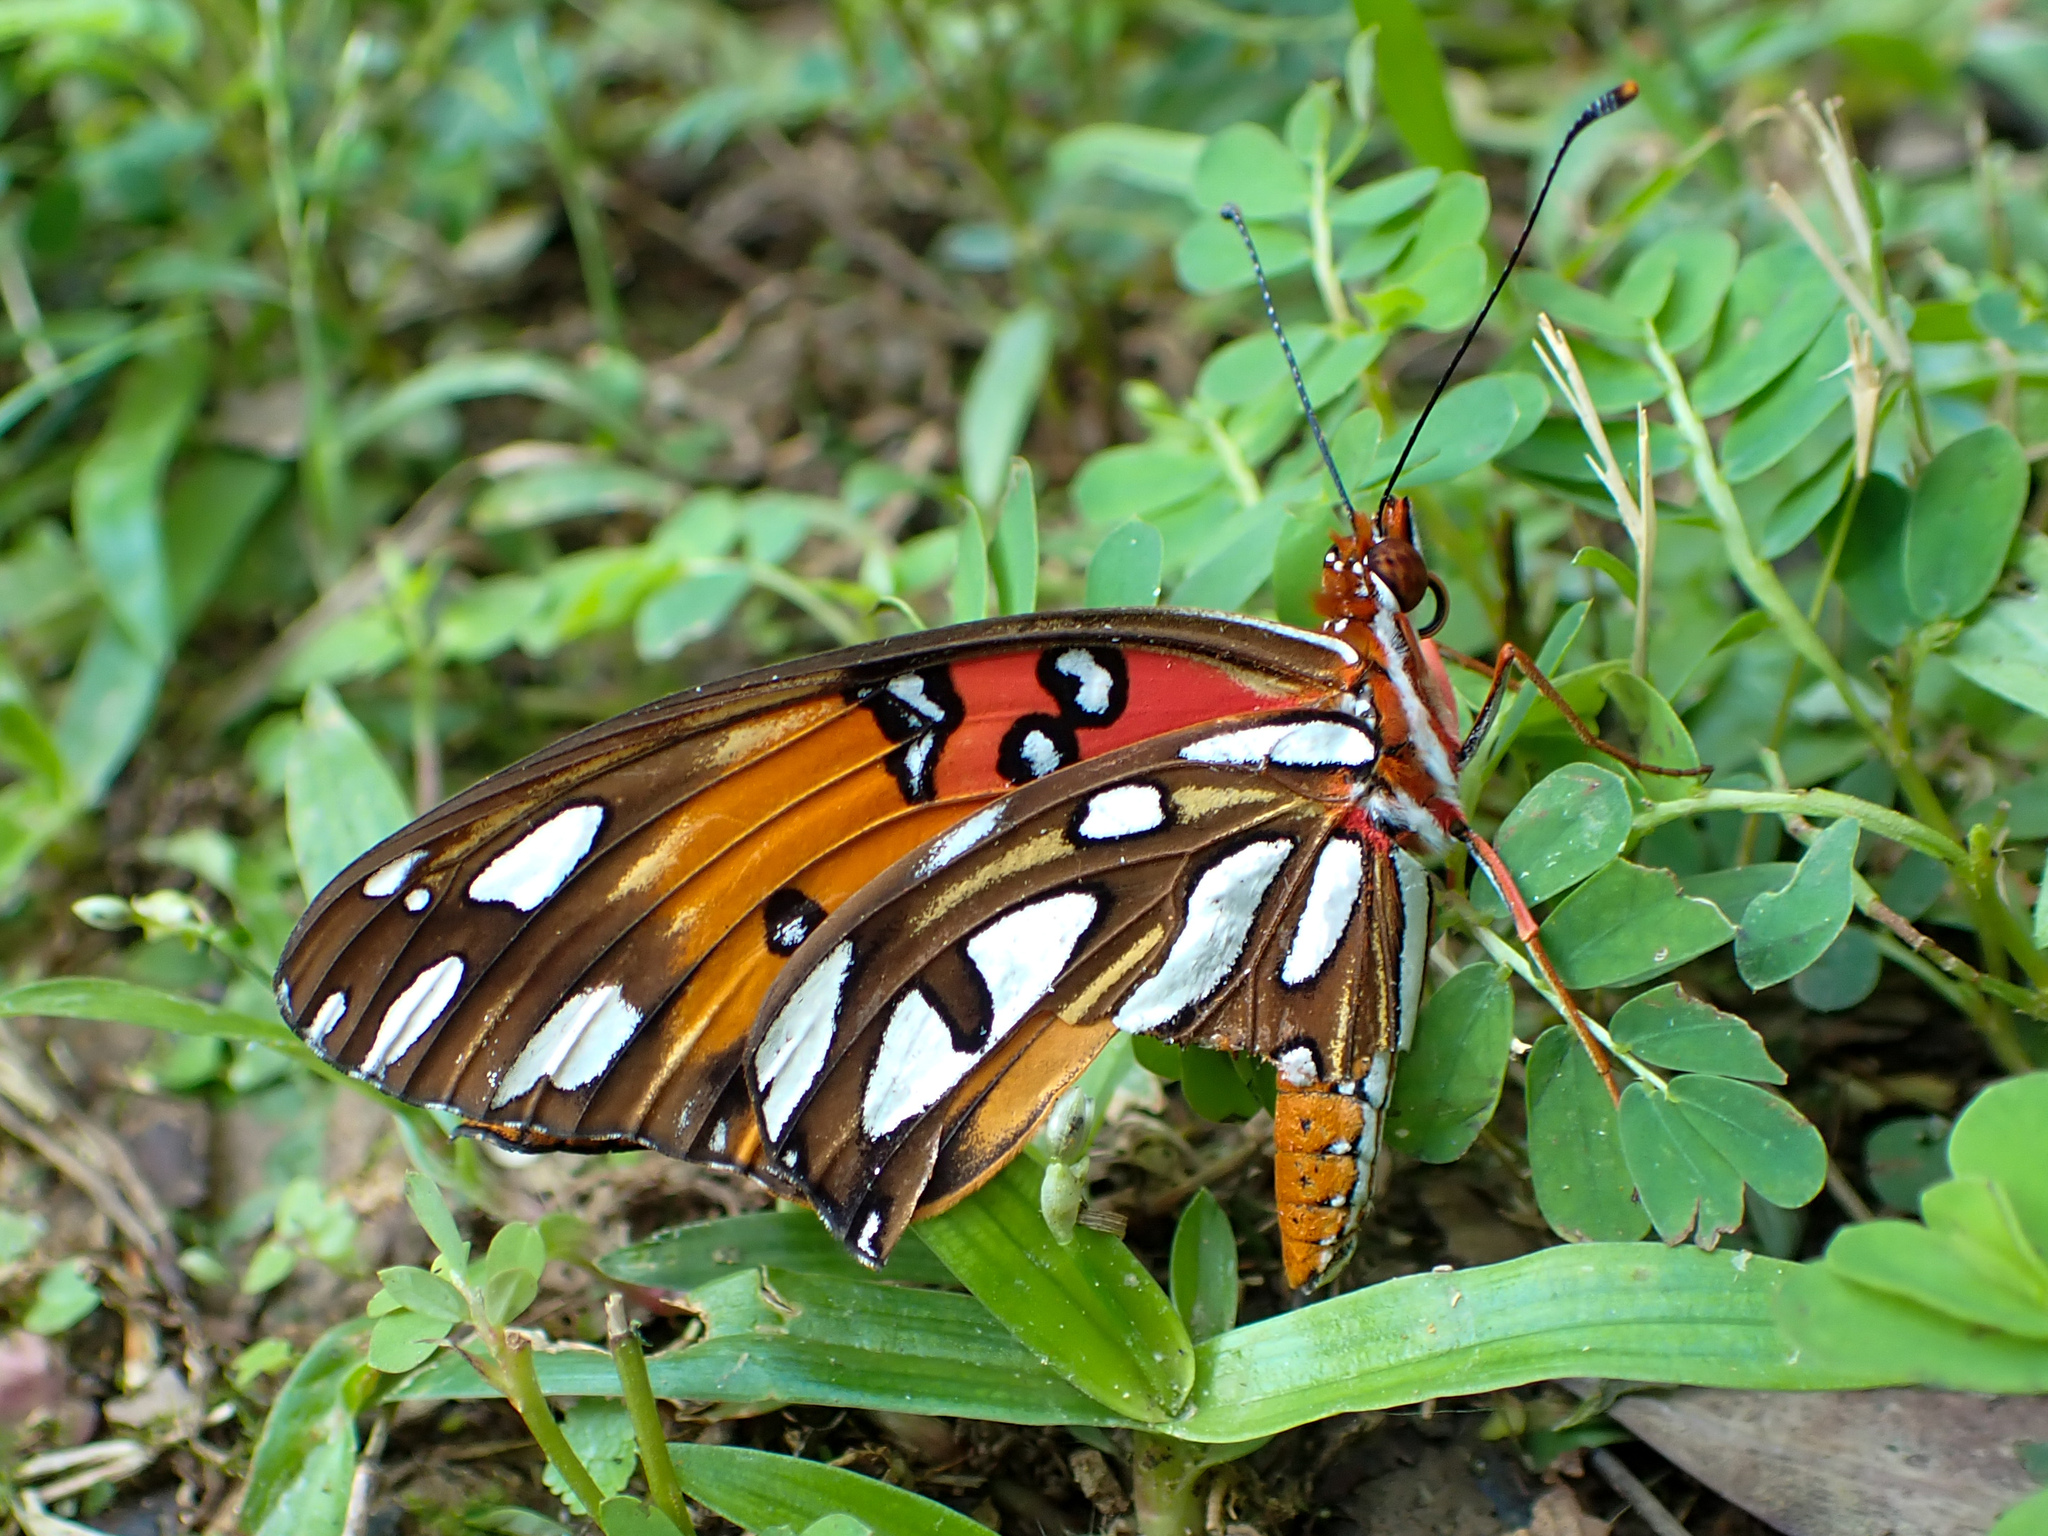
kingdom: Animalia
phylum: Arthropoda
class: Insecta
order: Lepidoptera
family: Nymphalidae
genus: Dione
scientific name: Dione vanillae
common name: Gulf fritillary
